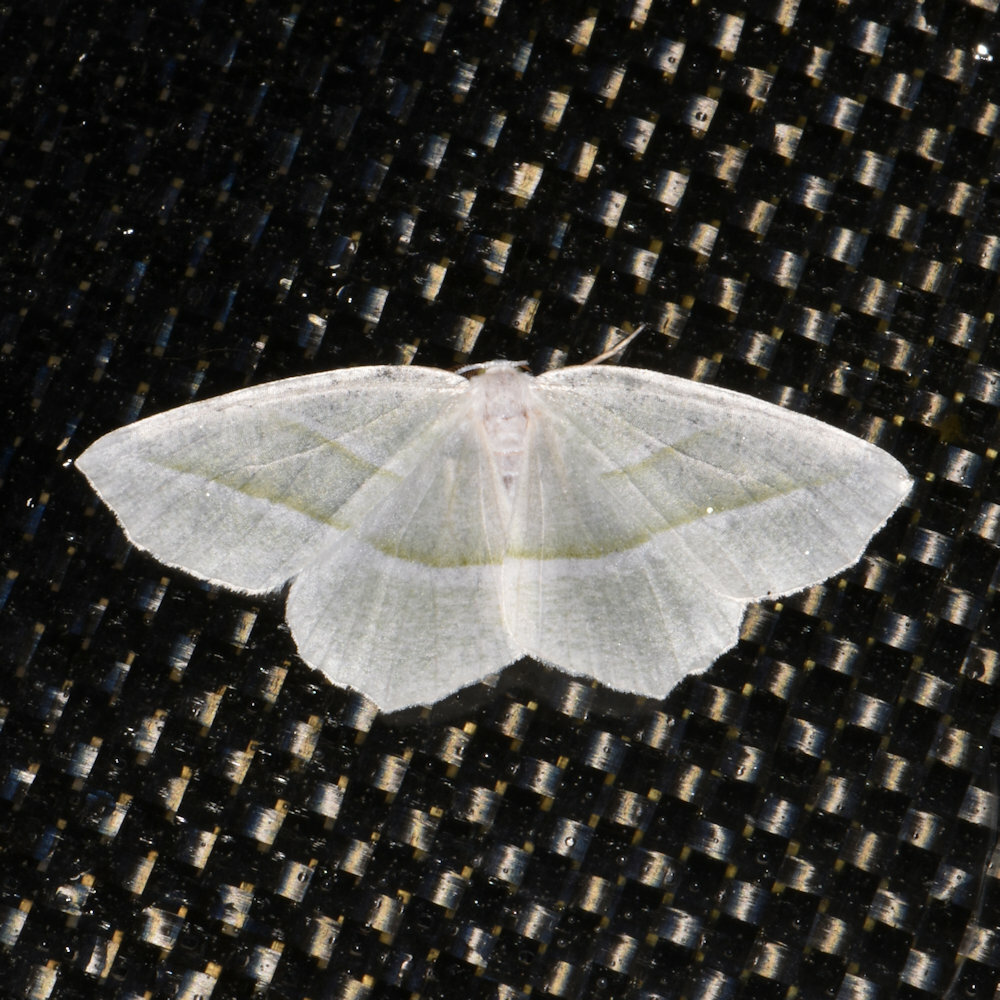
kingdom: Animalia
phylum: Arthropoda
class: Insecta
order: Lepidoptera
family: Geometridae
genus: Campaea
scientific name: Campaea perlata
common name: Fringed looper
